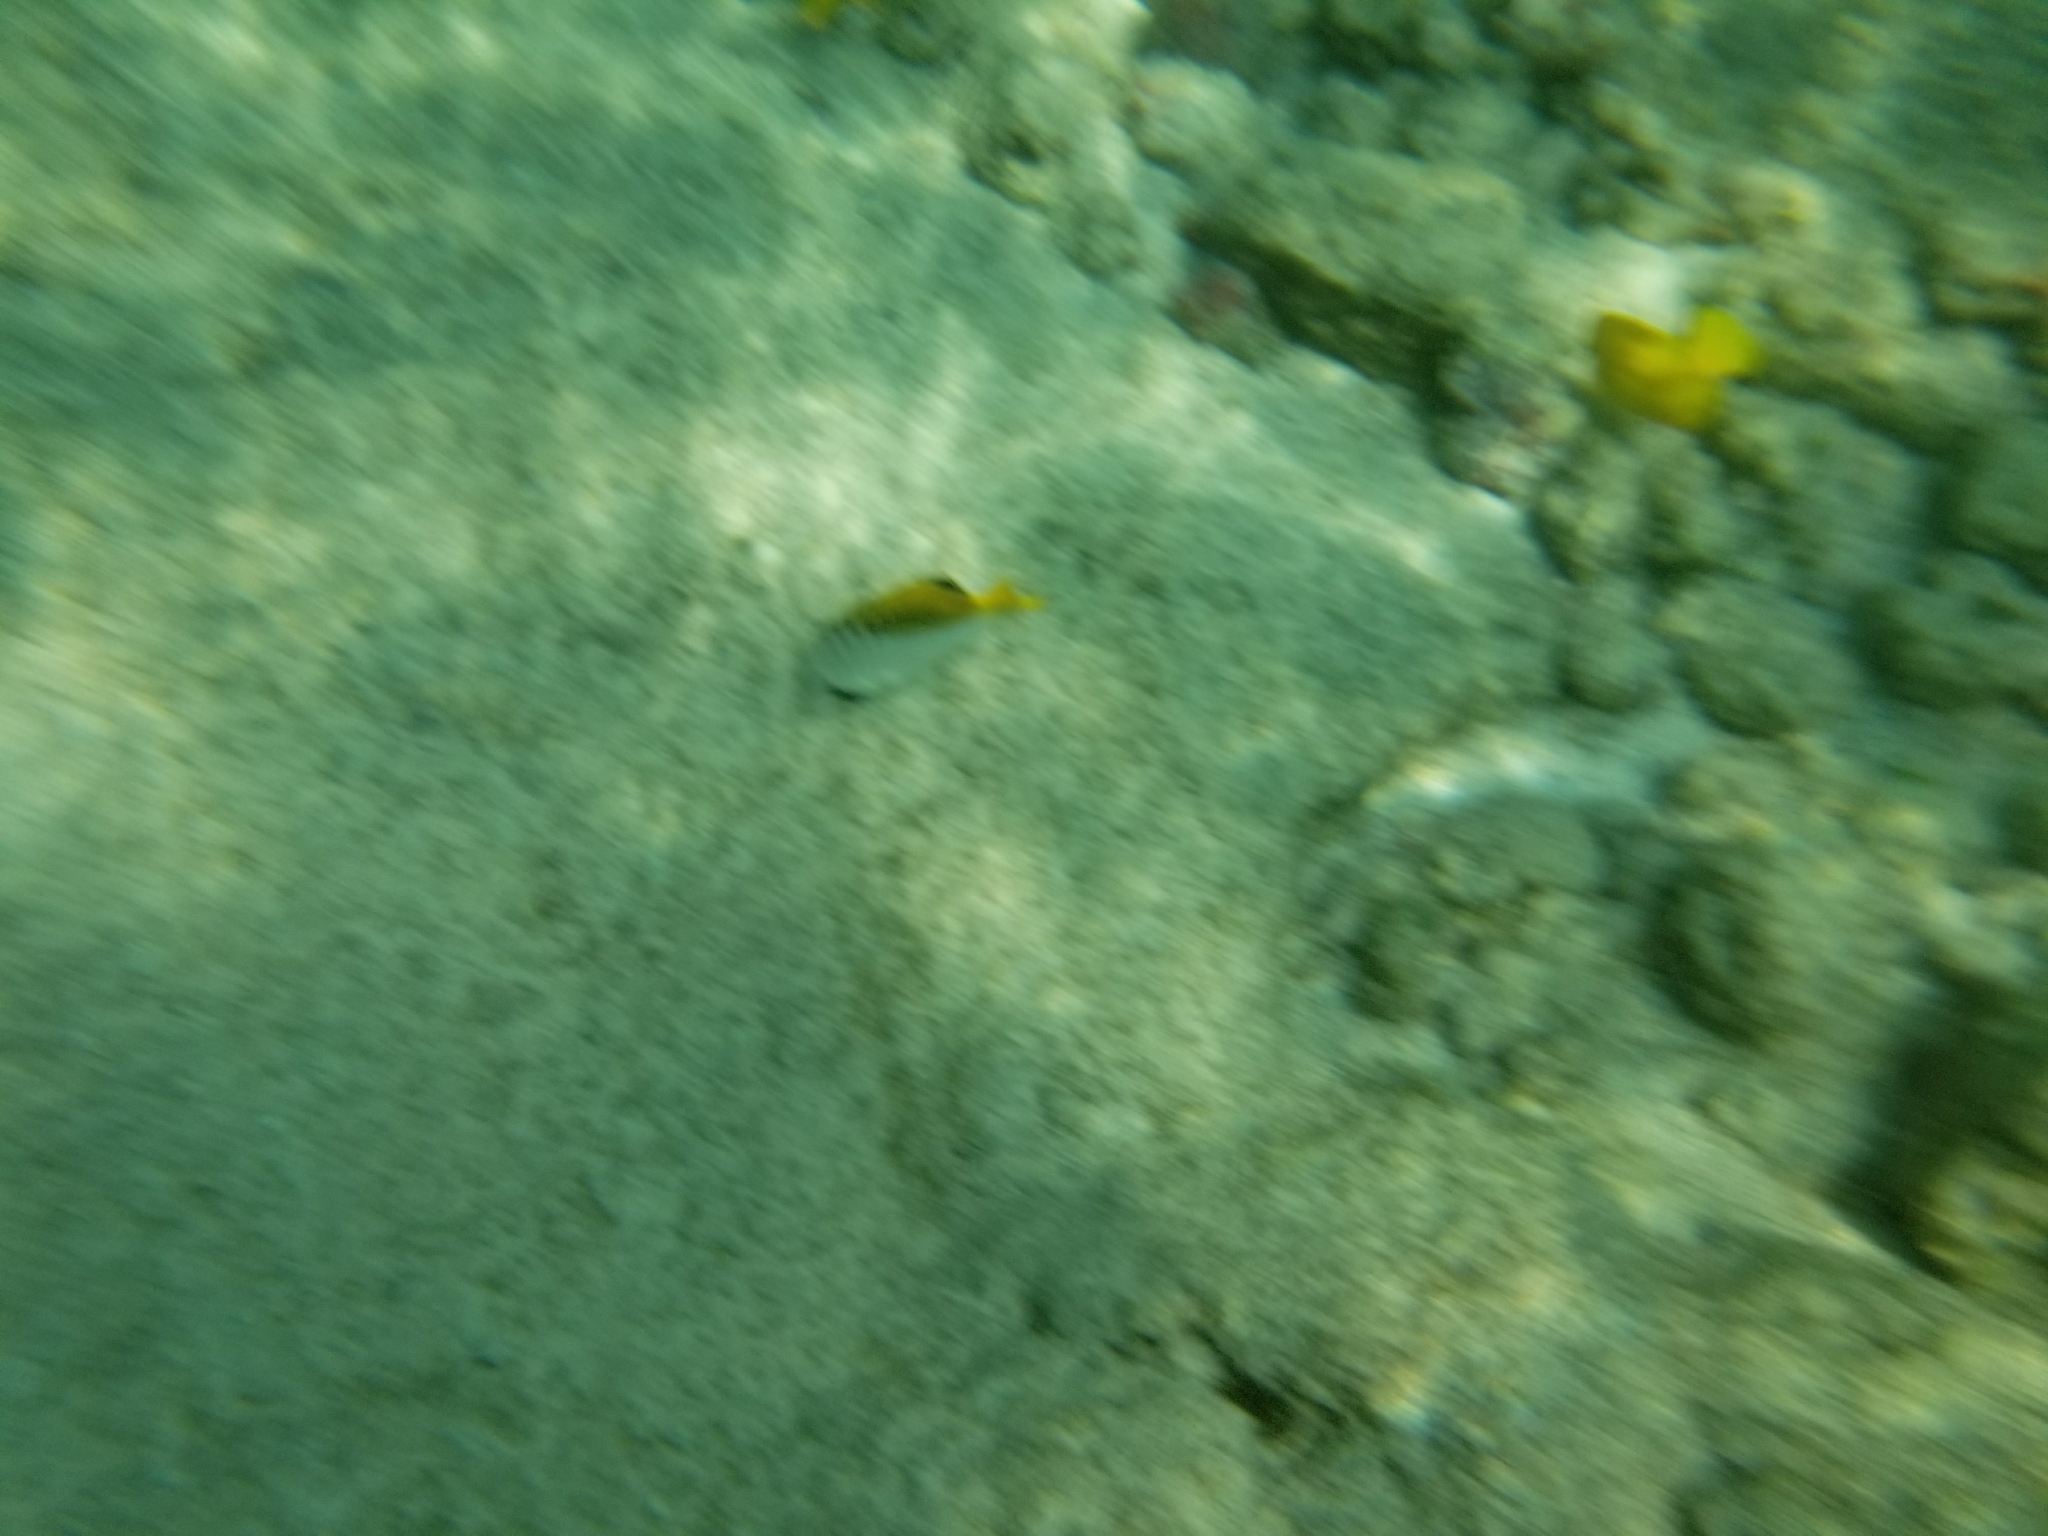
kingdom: Animalia
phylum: Chordata
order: Perciformes
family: Chaetodontidae
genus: Chaetodon
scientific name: Chaetodon auriga
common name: Threadfin butterflyfish
